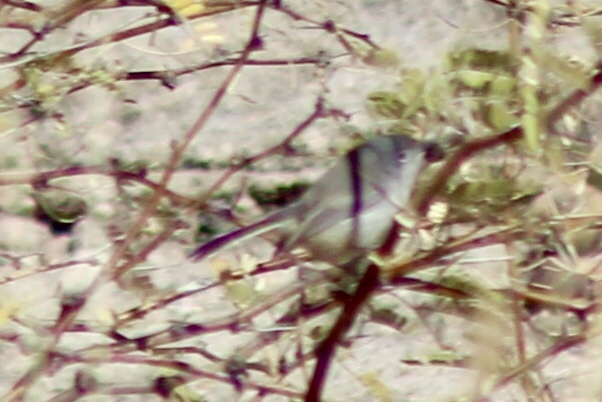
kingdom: Animalia
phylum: Chordata
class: Aves
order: Passeriformes
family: Polioptilidae
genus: Polioptila
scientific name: Polioptila melanura
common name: Black-tailed gnatcatcher
